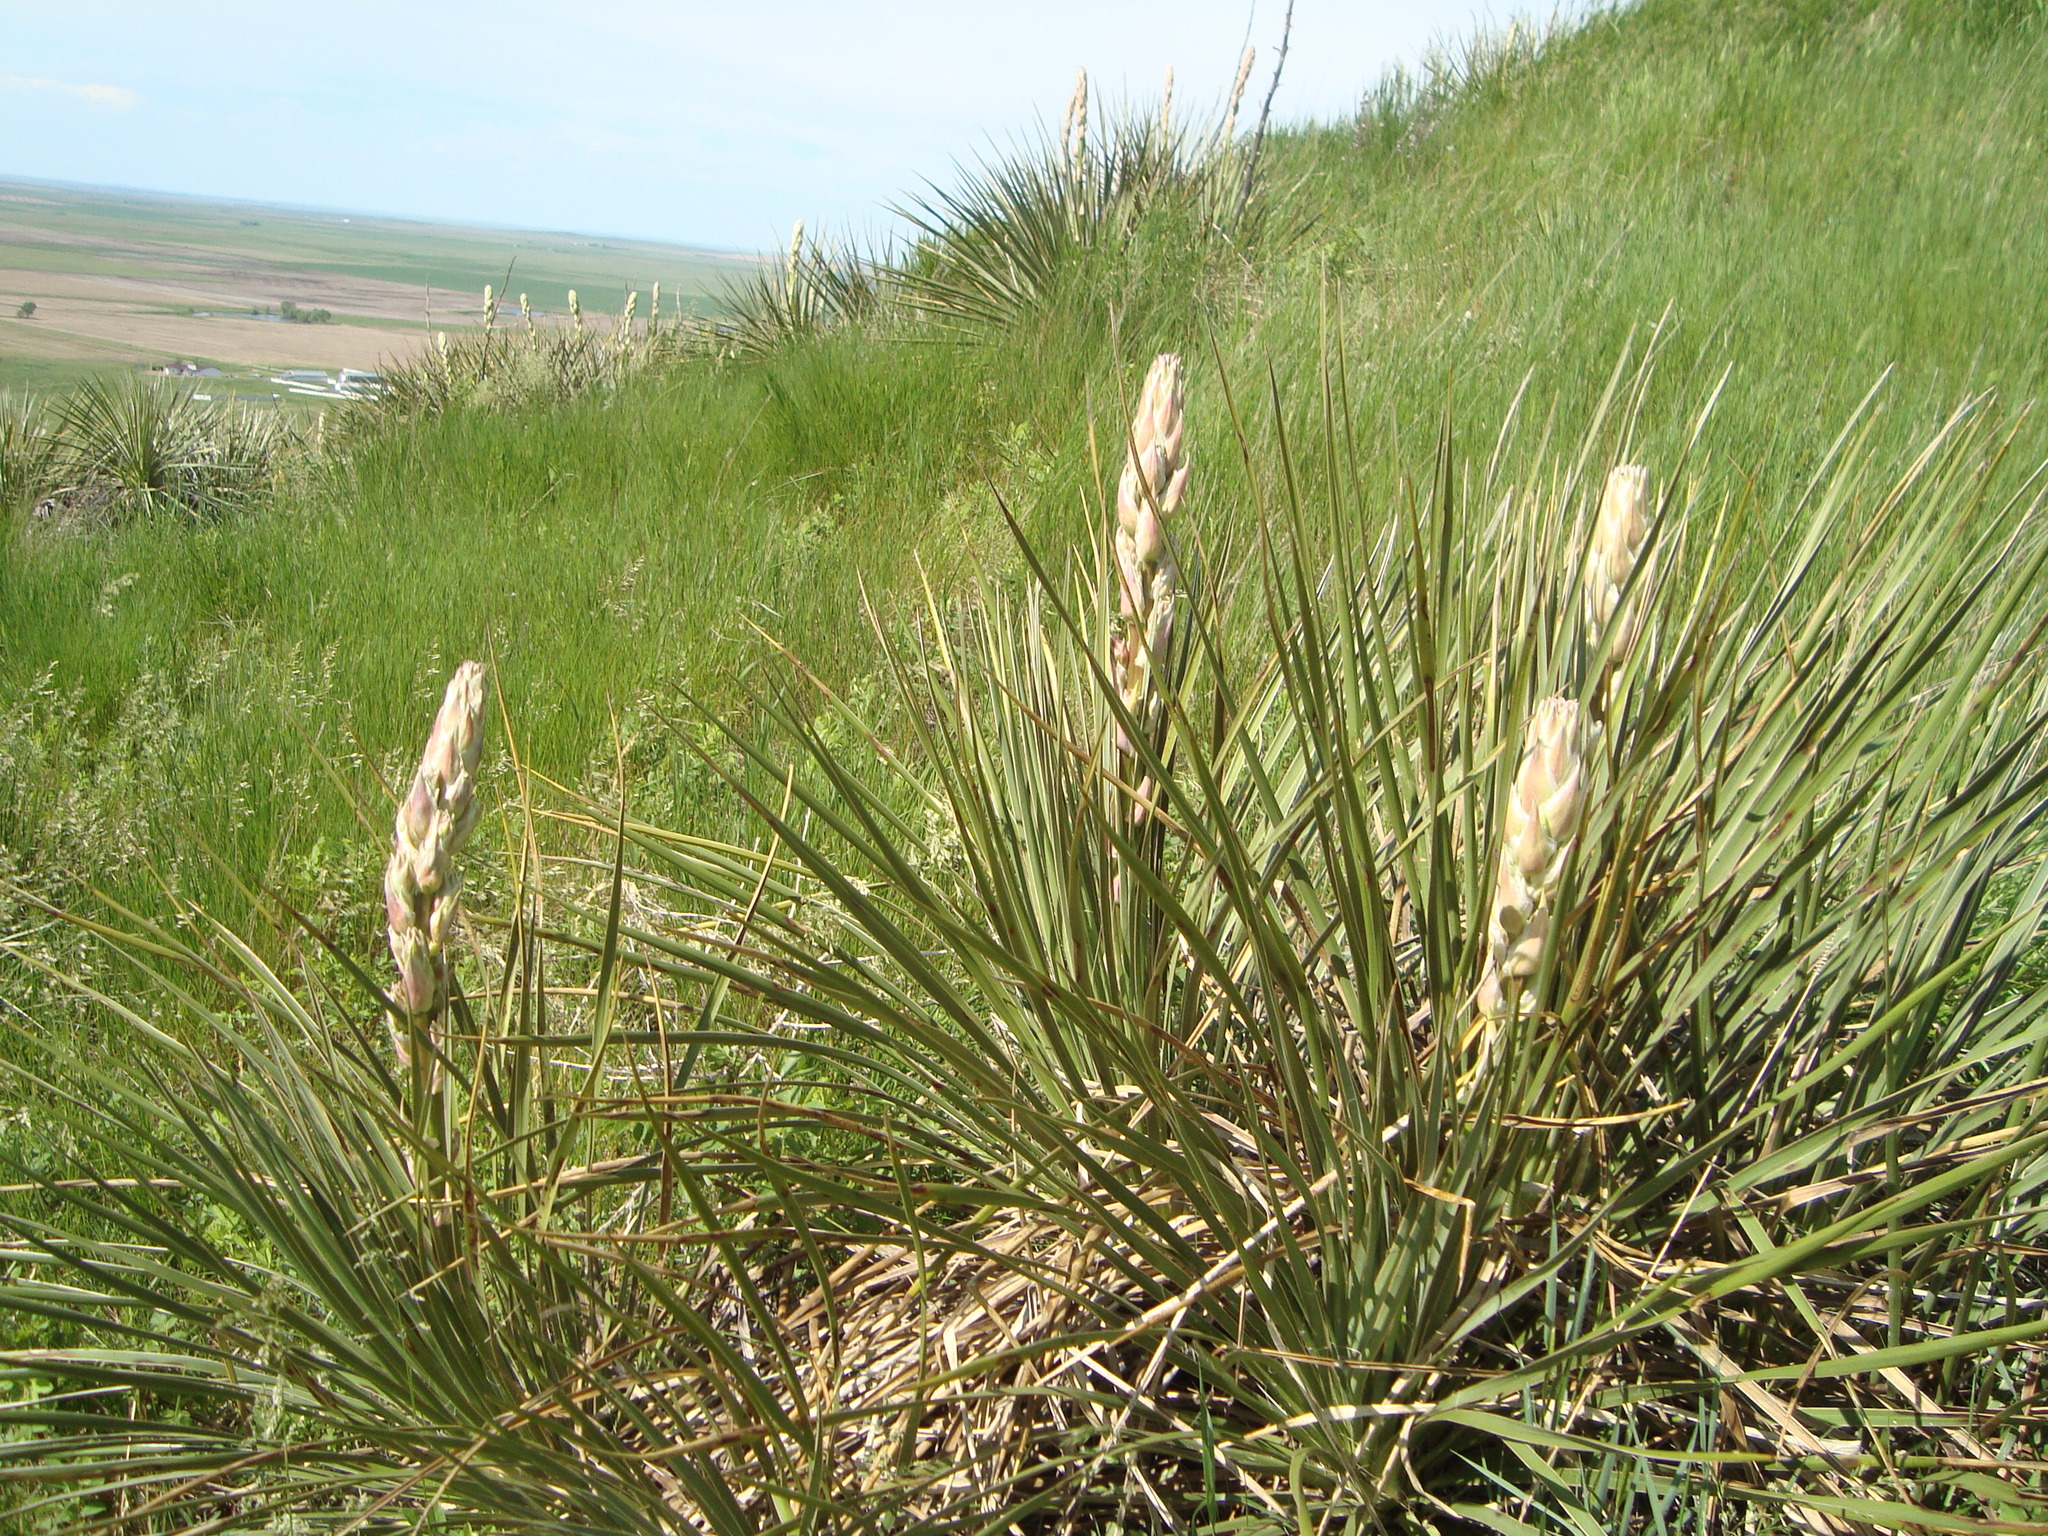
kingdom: Plantae
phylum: Tracheophyta
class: Liliopsida
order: Asparagales
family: Asparagaceae
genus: Yucca
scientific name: Yucca glauca
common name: Great plains yucca
